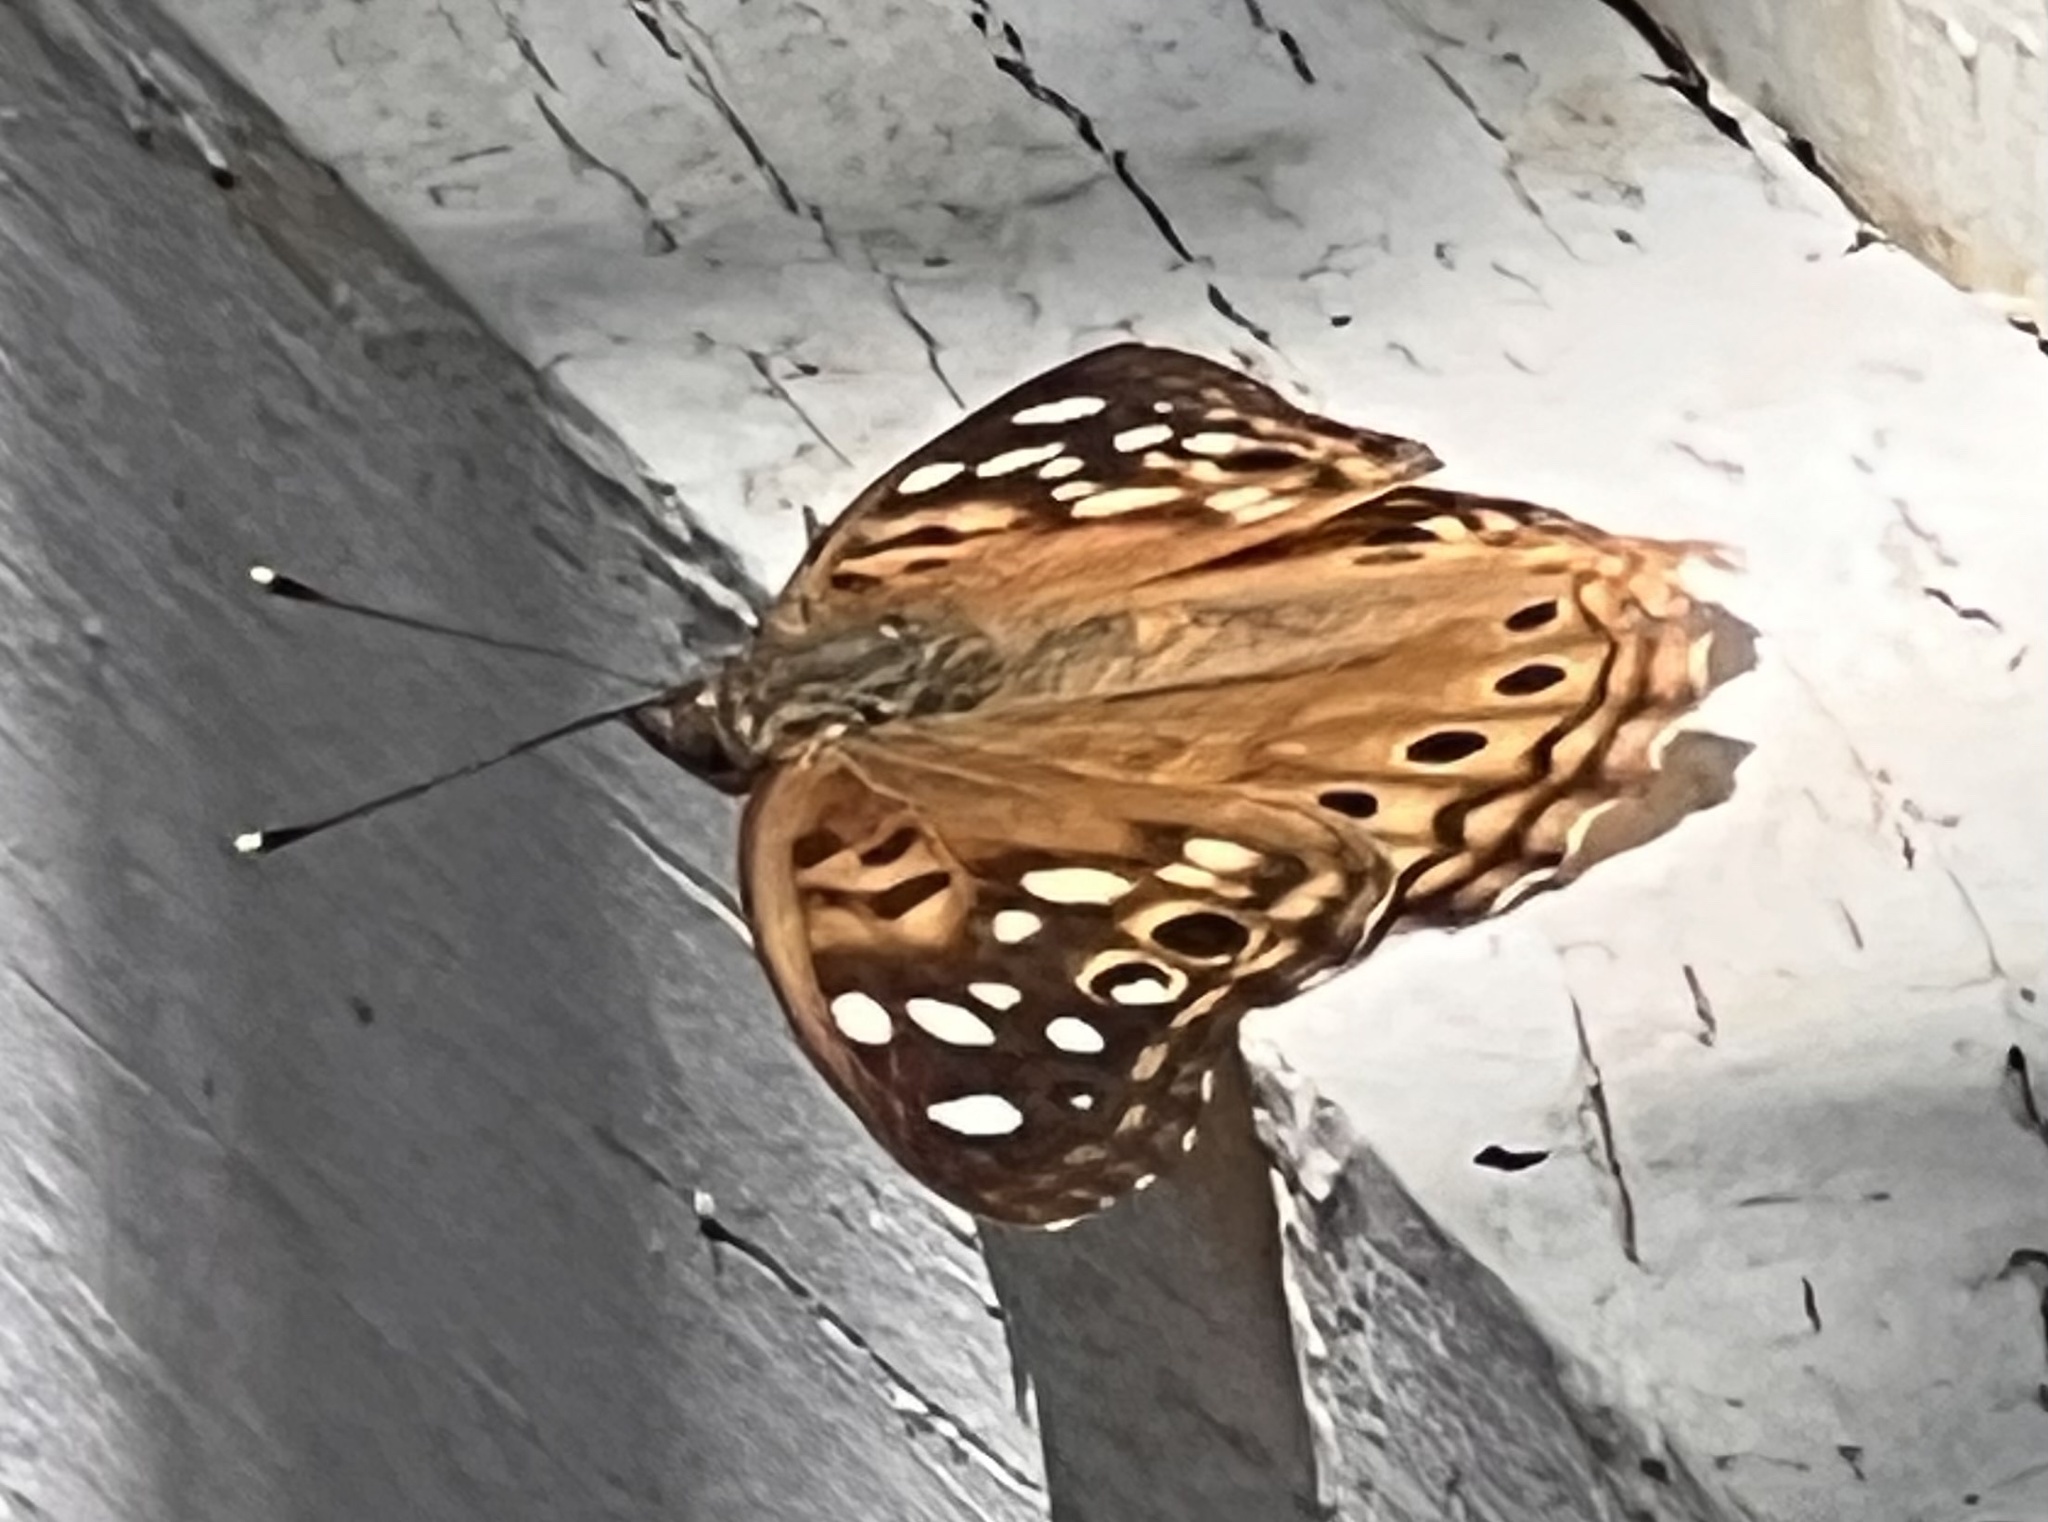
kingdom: Animalia
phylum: Arthropoda
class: Insecta
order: Lepidoptera
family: Nymphalidae
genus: Asterocampa
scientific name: Asterocampa celtis
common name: Hackberry emperor
